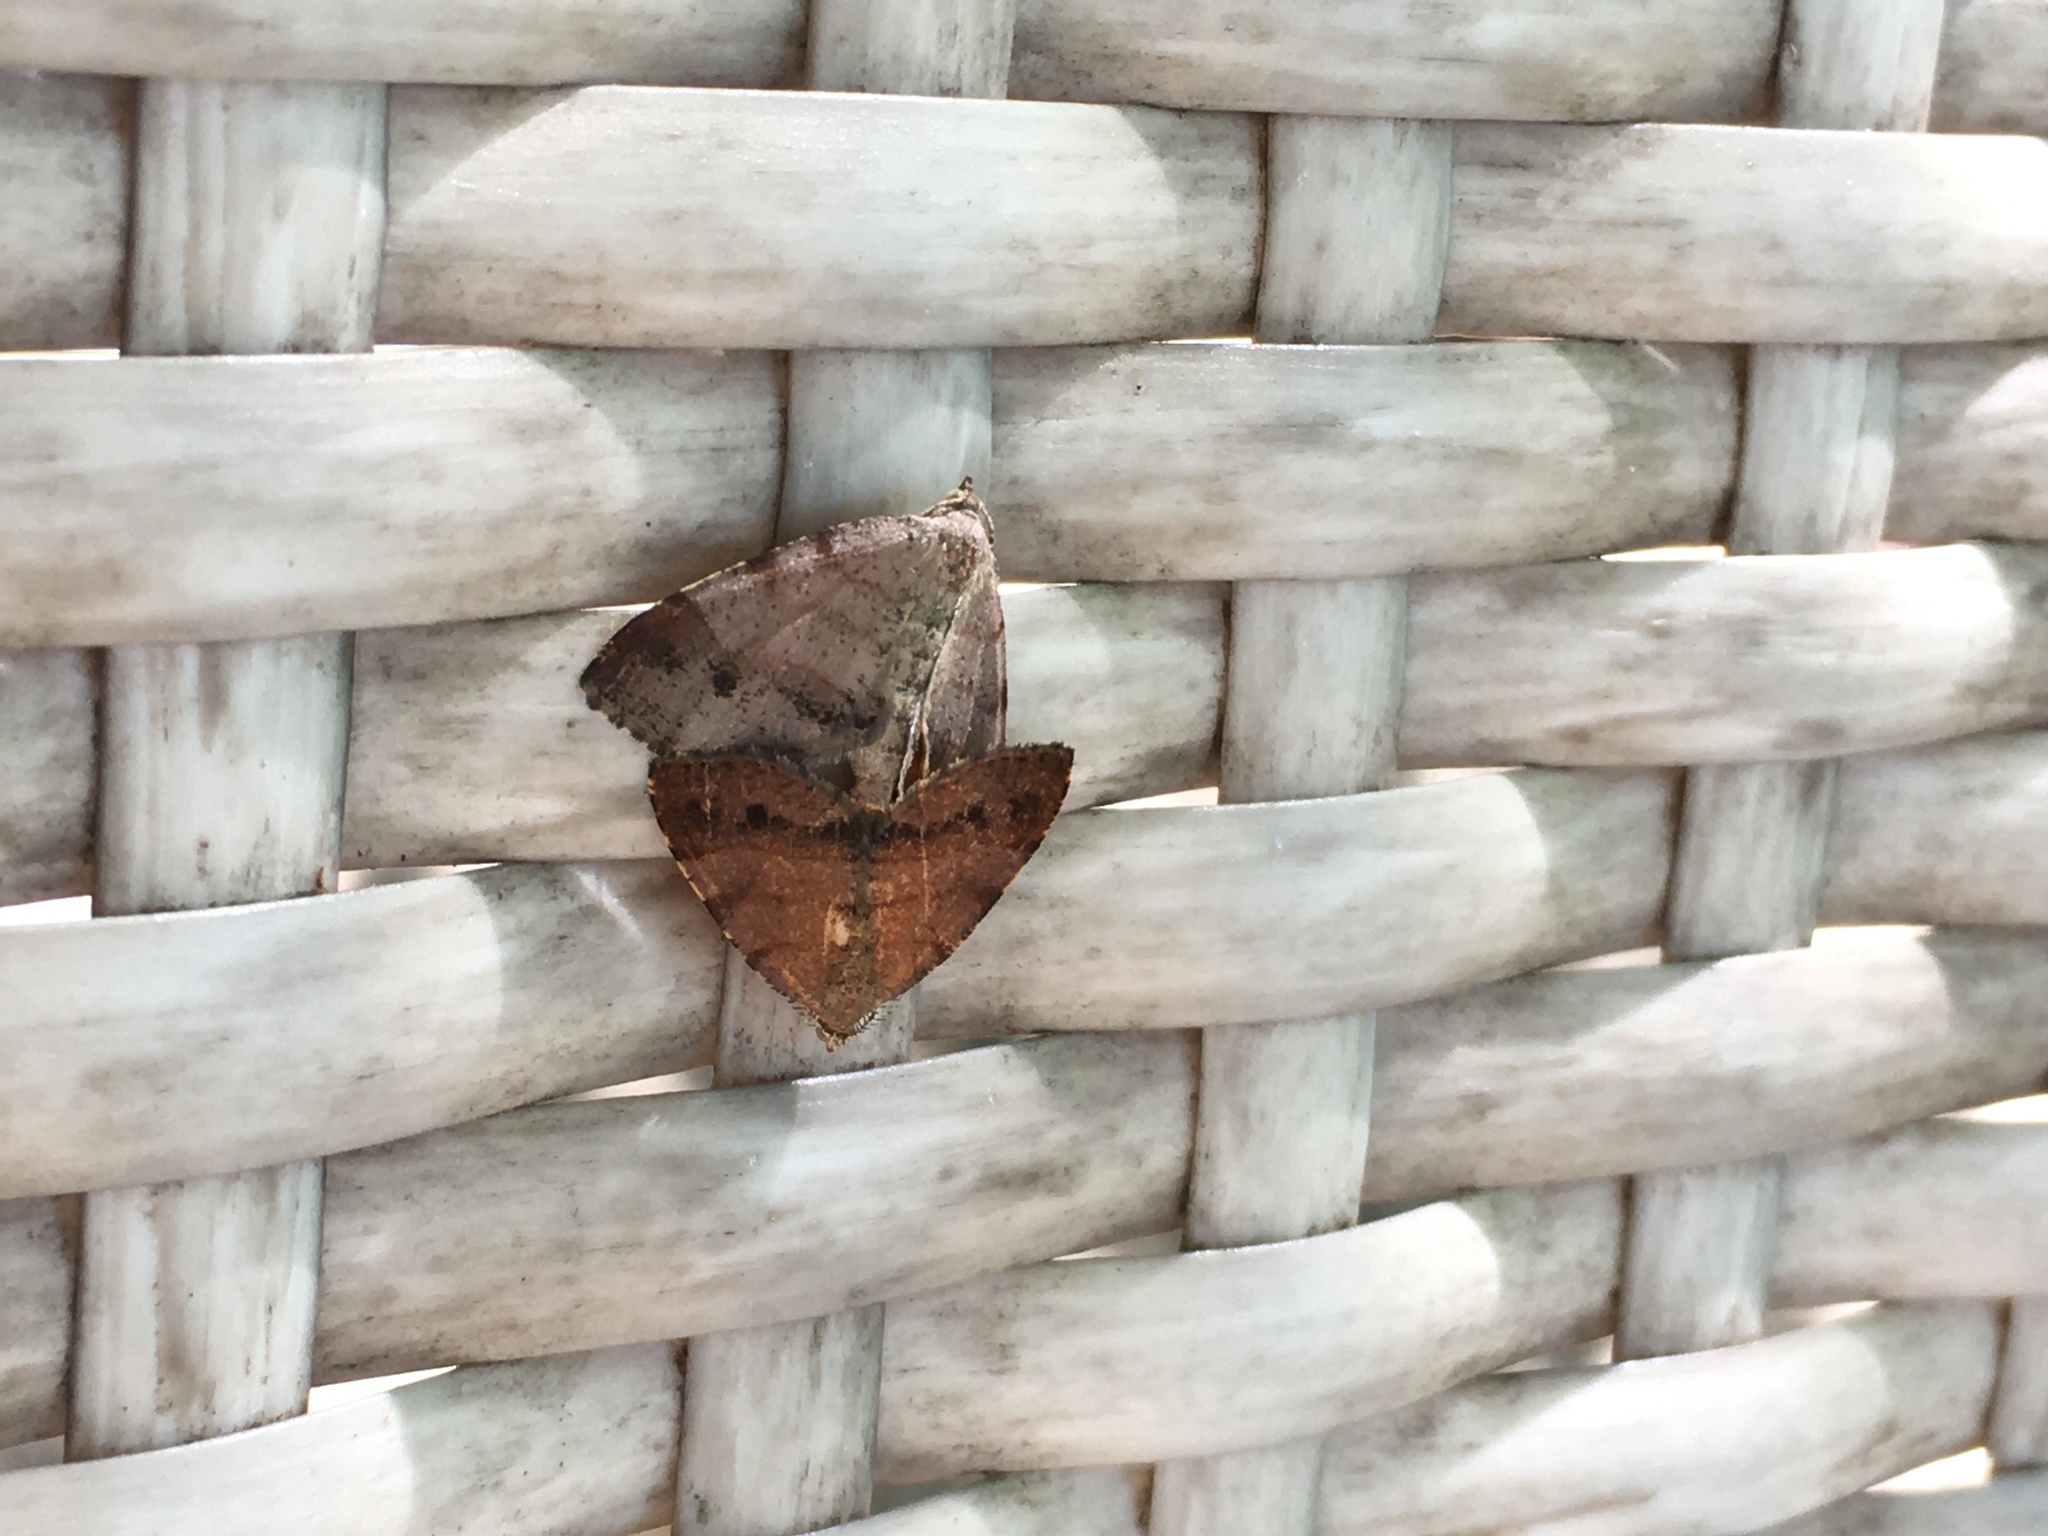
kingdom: Animalia
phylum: Arthropoda
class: Insecta
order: Lepidoptera
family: Geometridae
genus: Mellilla
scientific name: Mellilla xanthometata
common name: Orange wing moth
